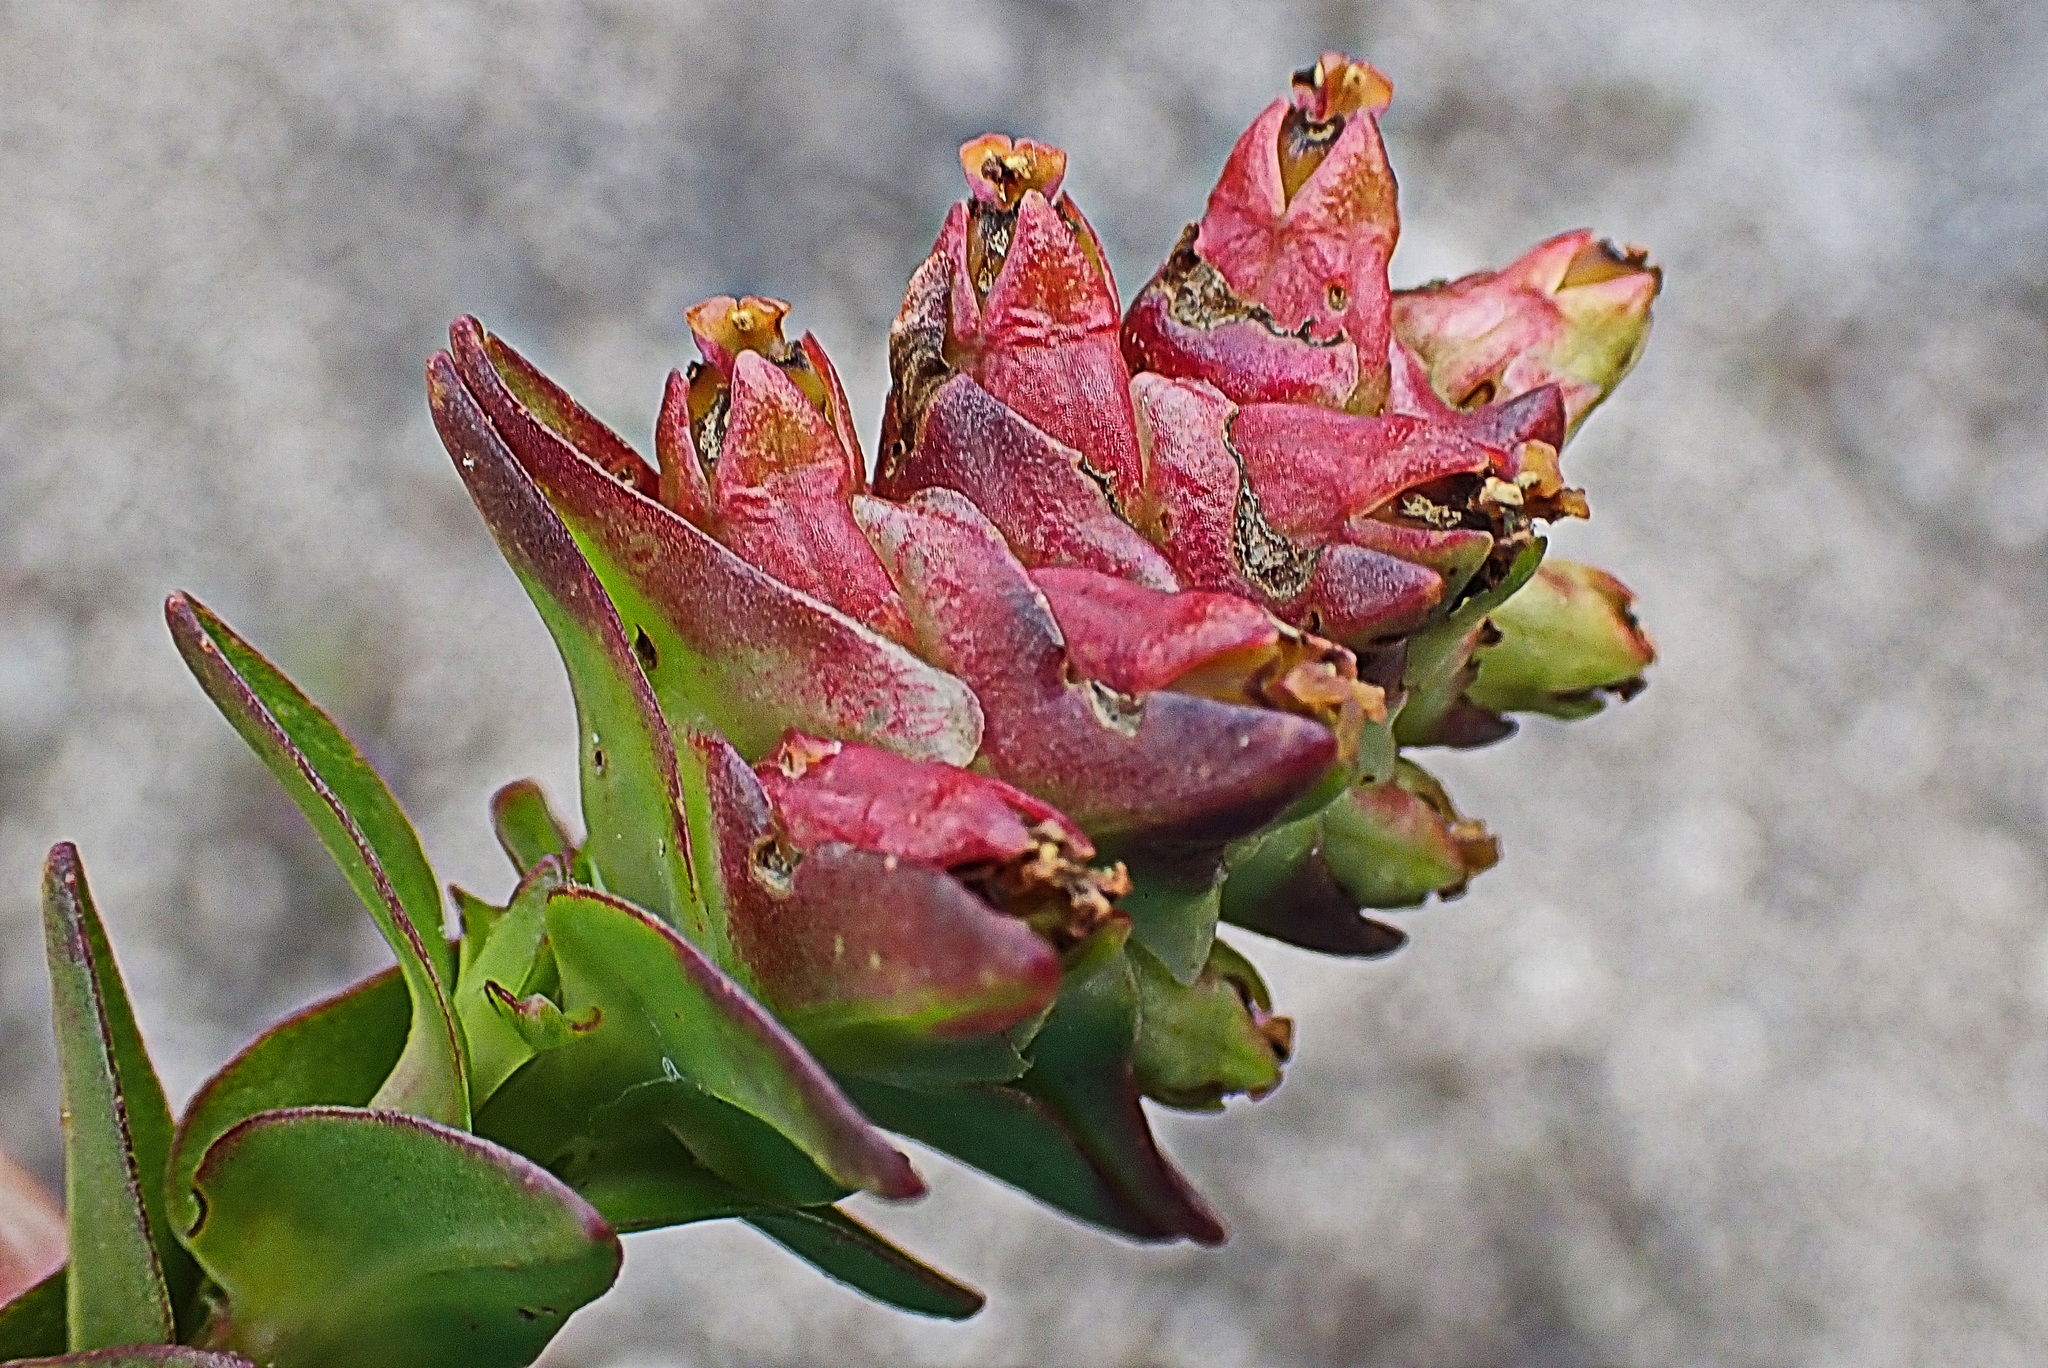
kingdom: Plantae
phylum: Tracheophyta
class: Magnoliopsida
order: Myrtales
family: Penaeaceae
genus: Penaea
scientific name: Penaea cneorum
